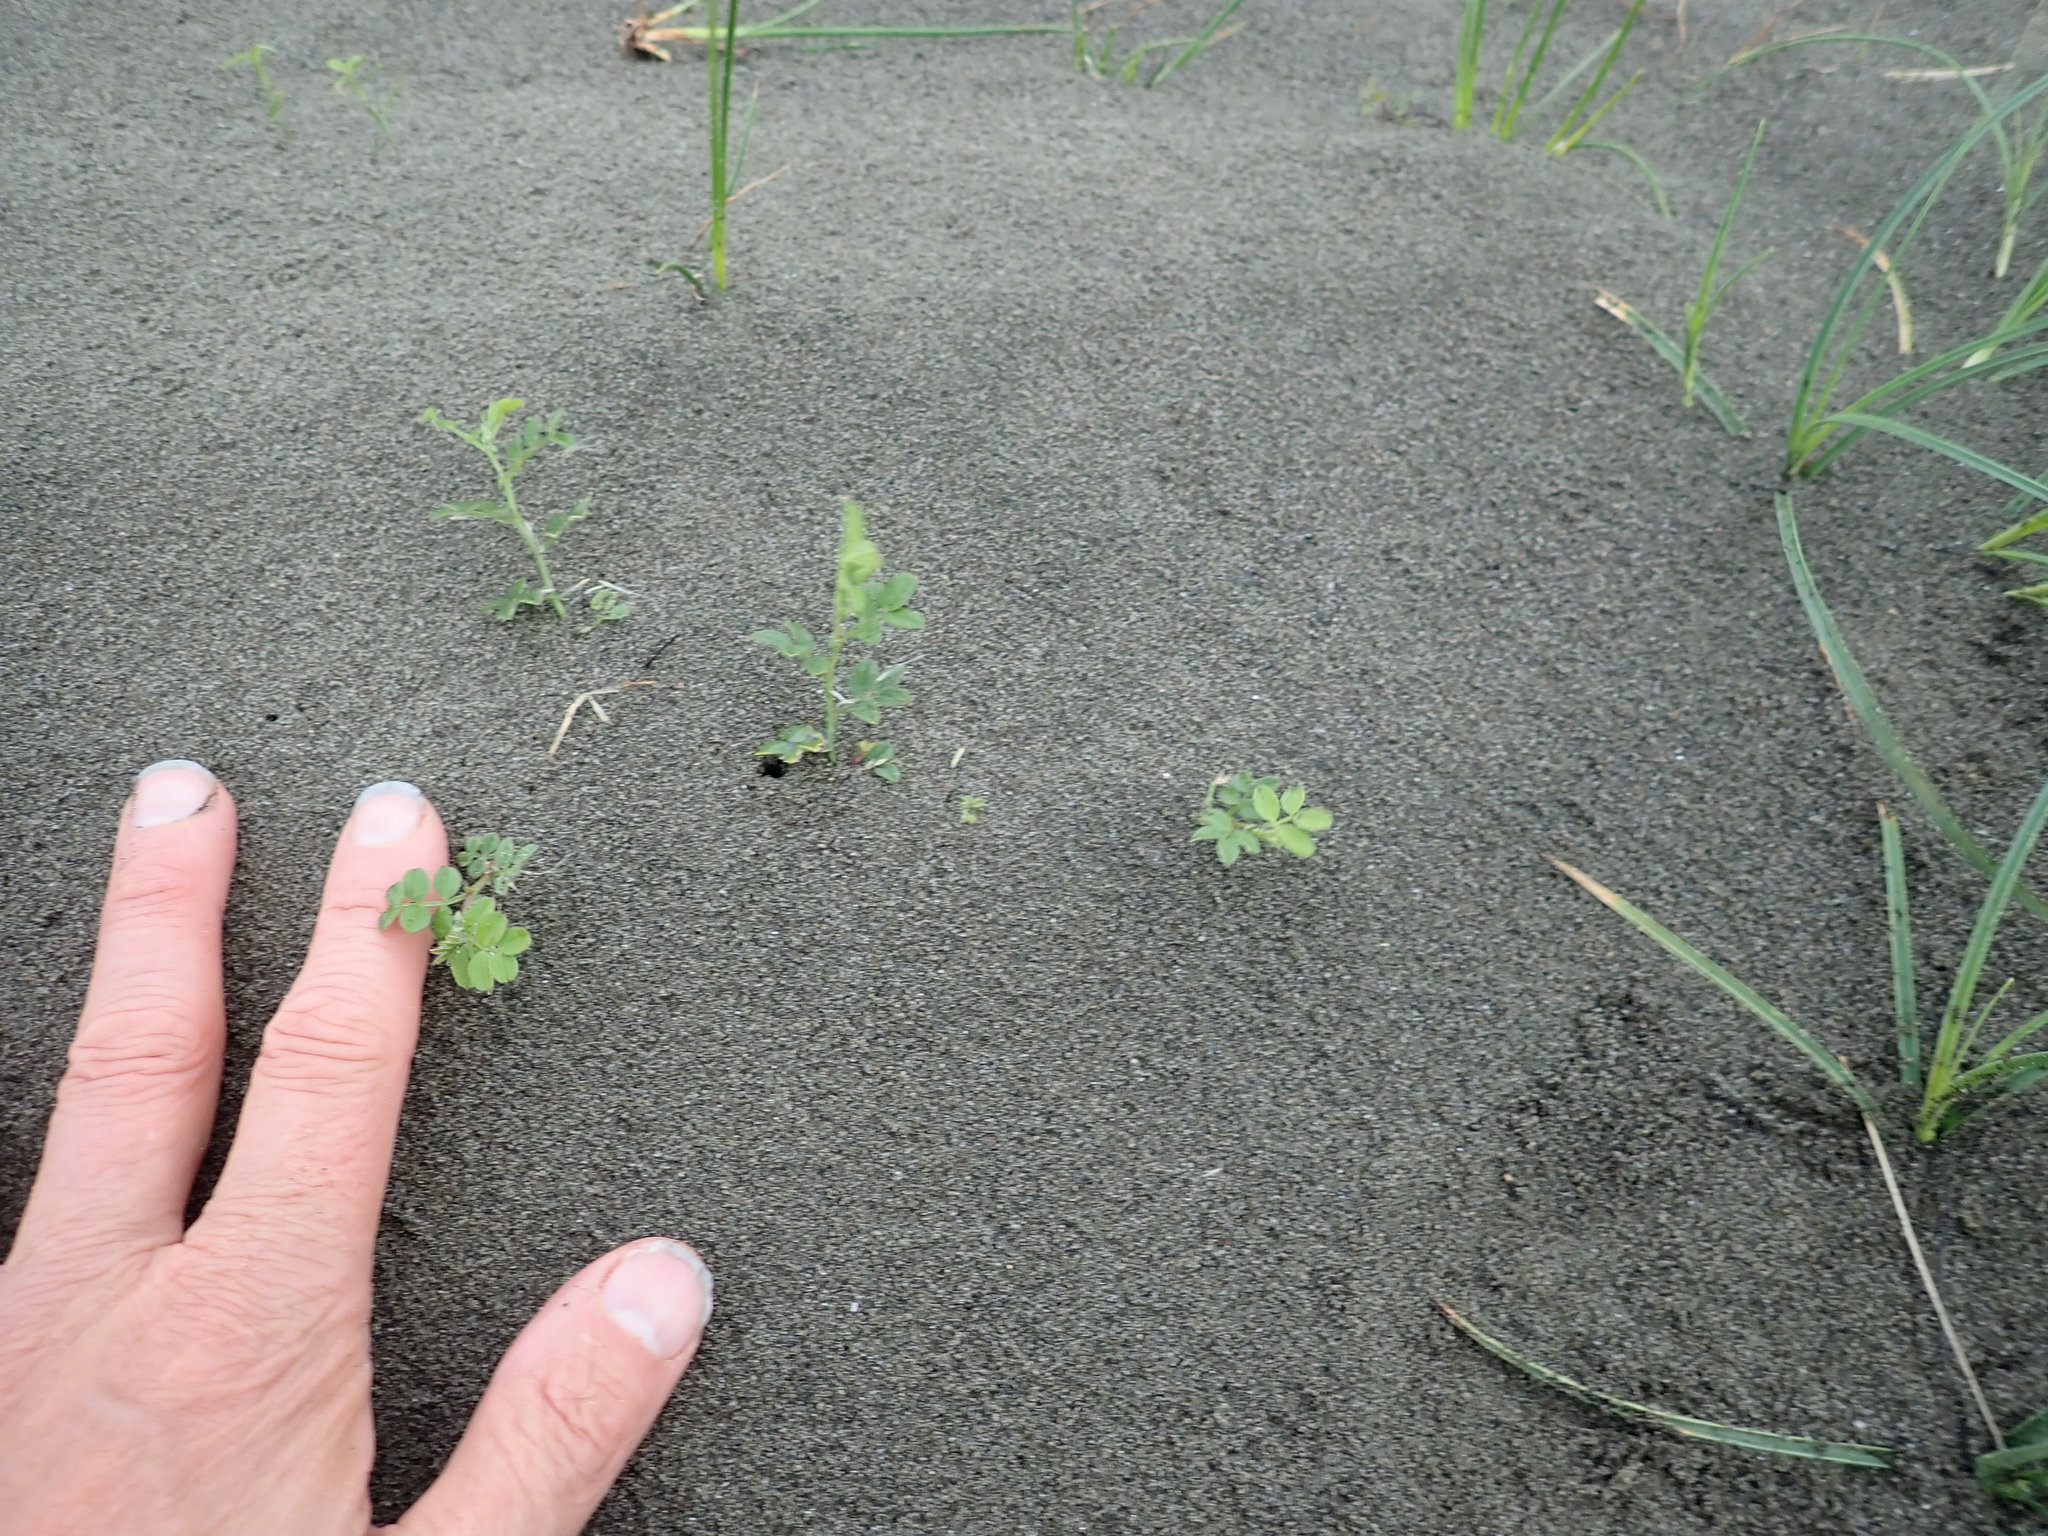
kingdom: Plantae
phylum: Tracheophyta
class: Magnoliopsida
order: Fabales
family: Fabaceae
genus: Acacia
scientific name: Acacia longifolia
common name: Sydney golden wattle
